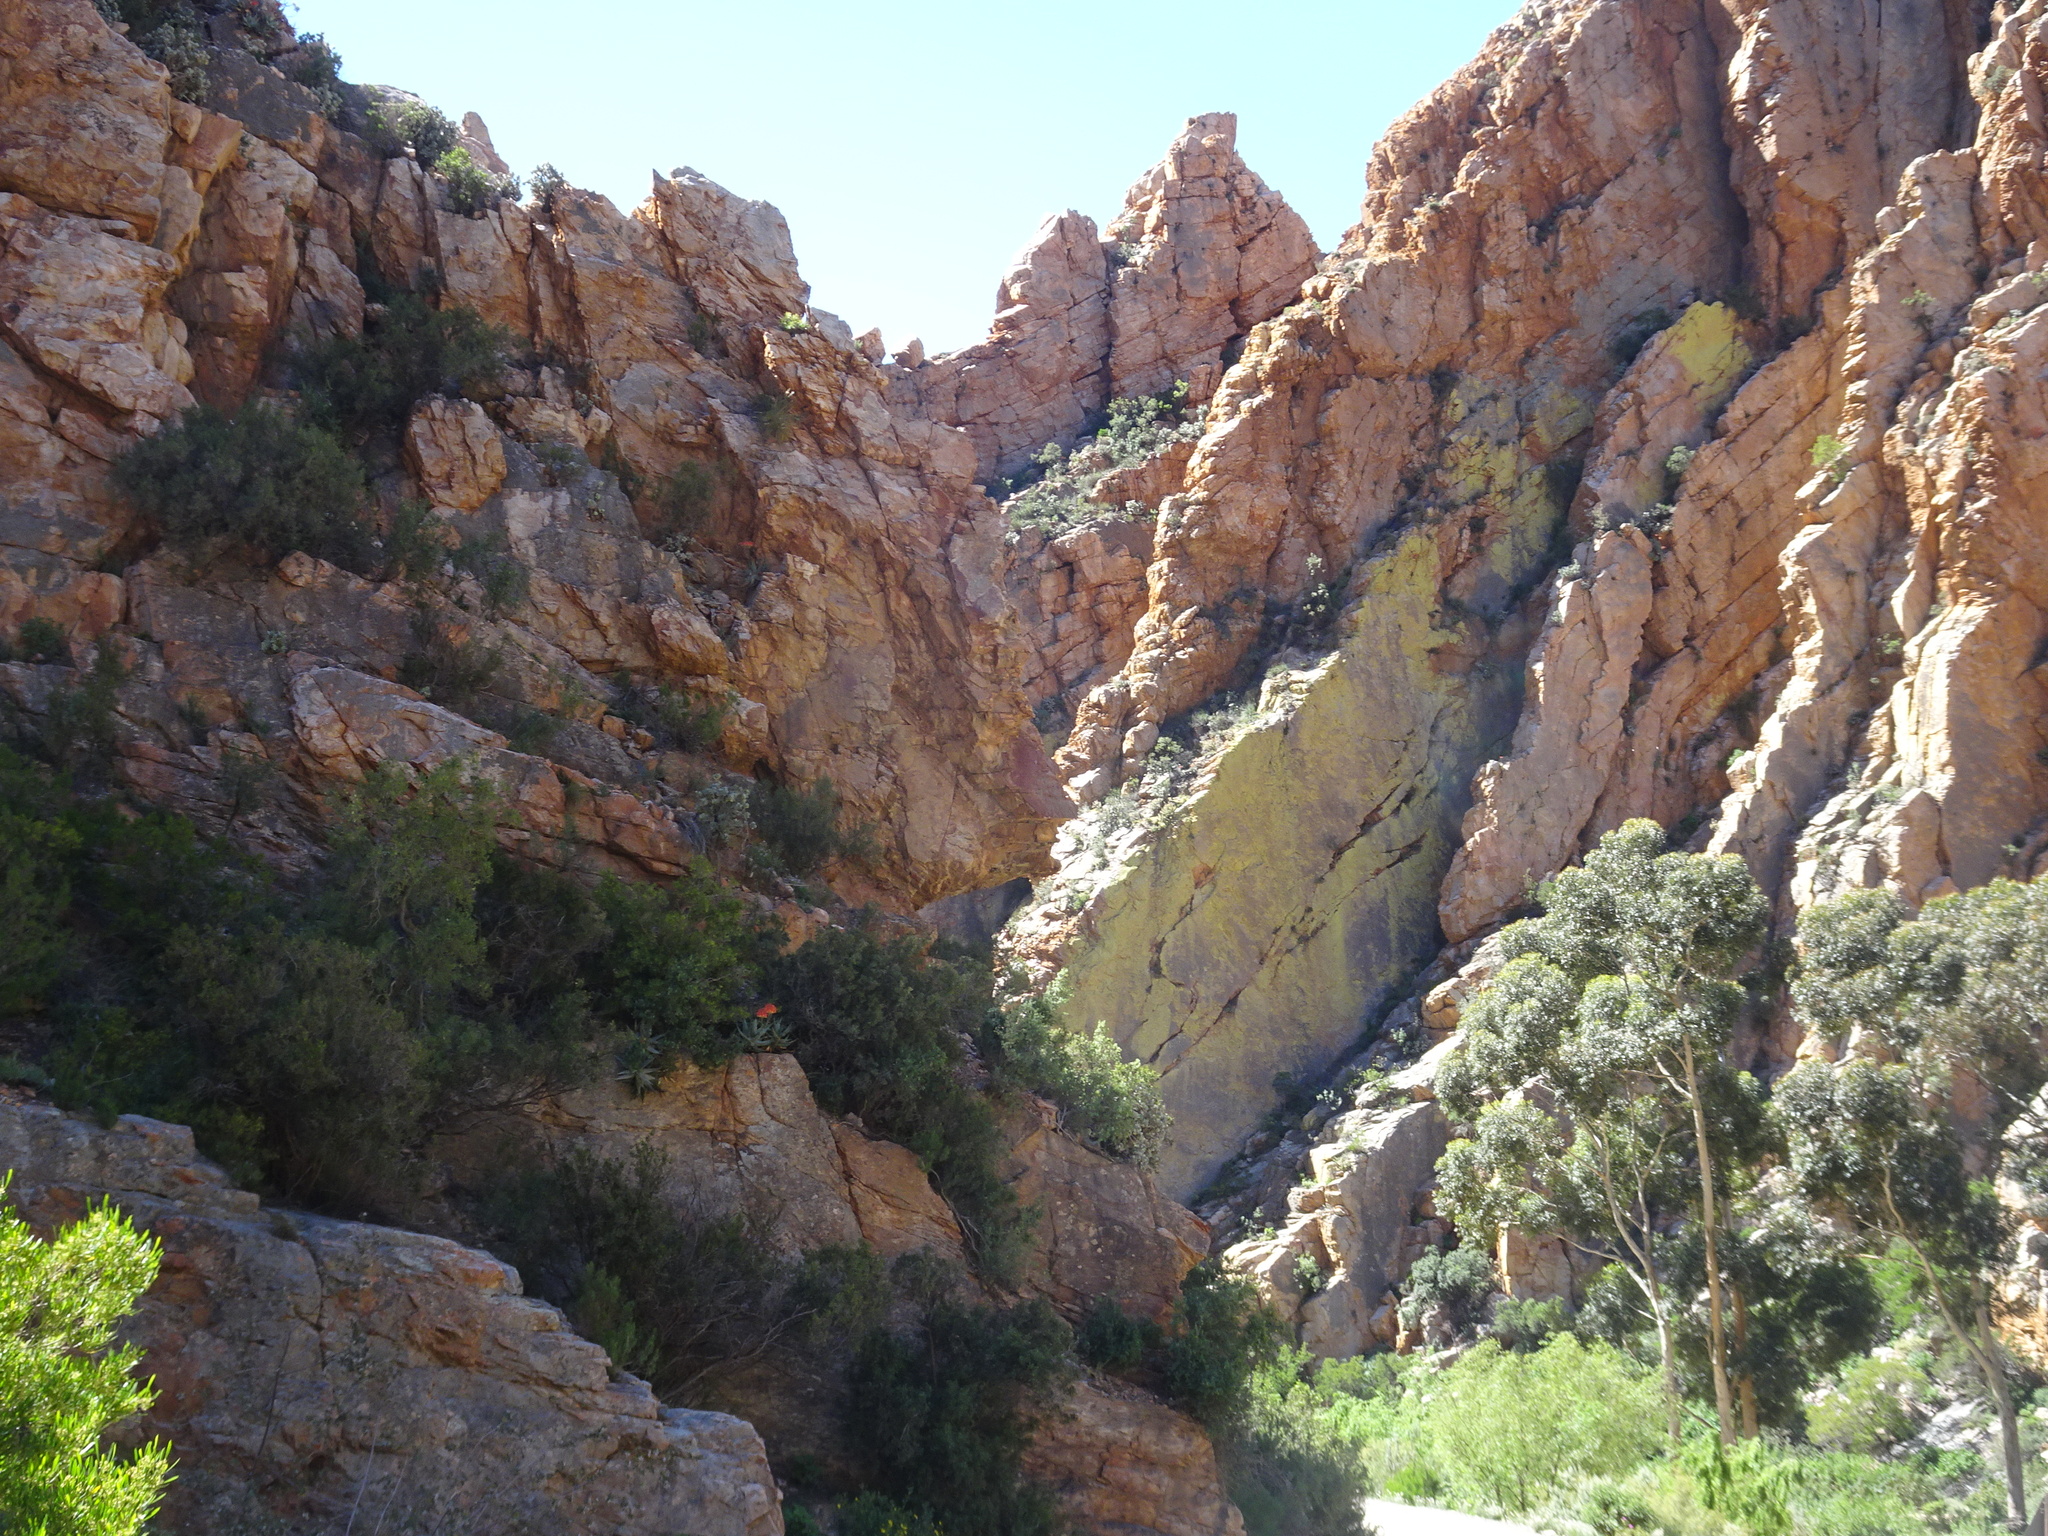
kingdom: Fungi
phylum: Ascomycota
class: Lecanoromycetes
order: Caliciales
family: Caliciaceae
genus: Dermatiscum
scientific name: Dermatiscum thunbergii
